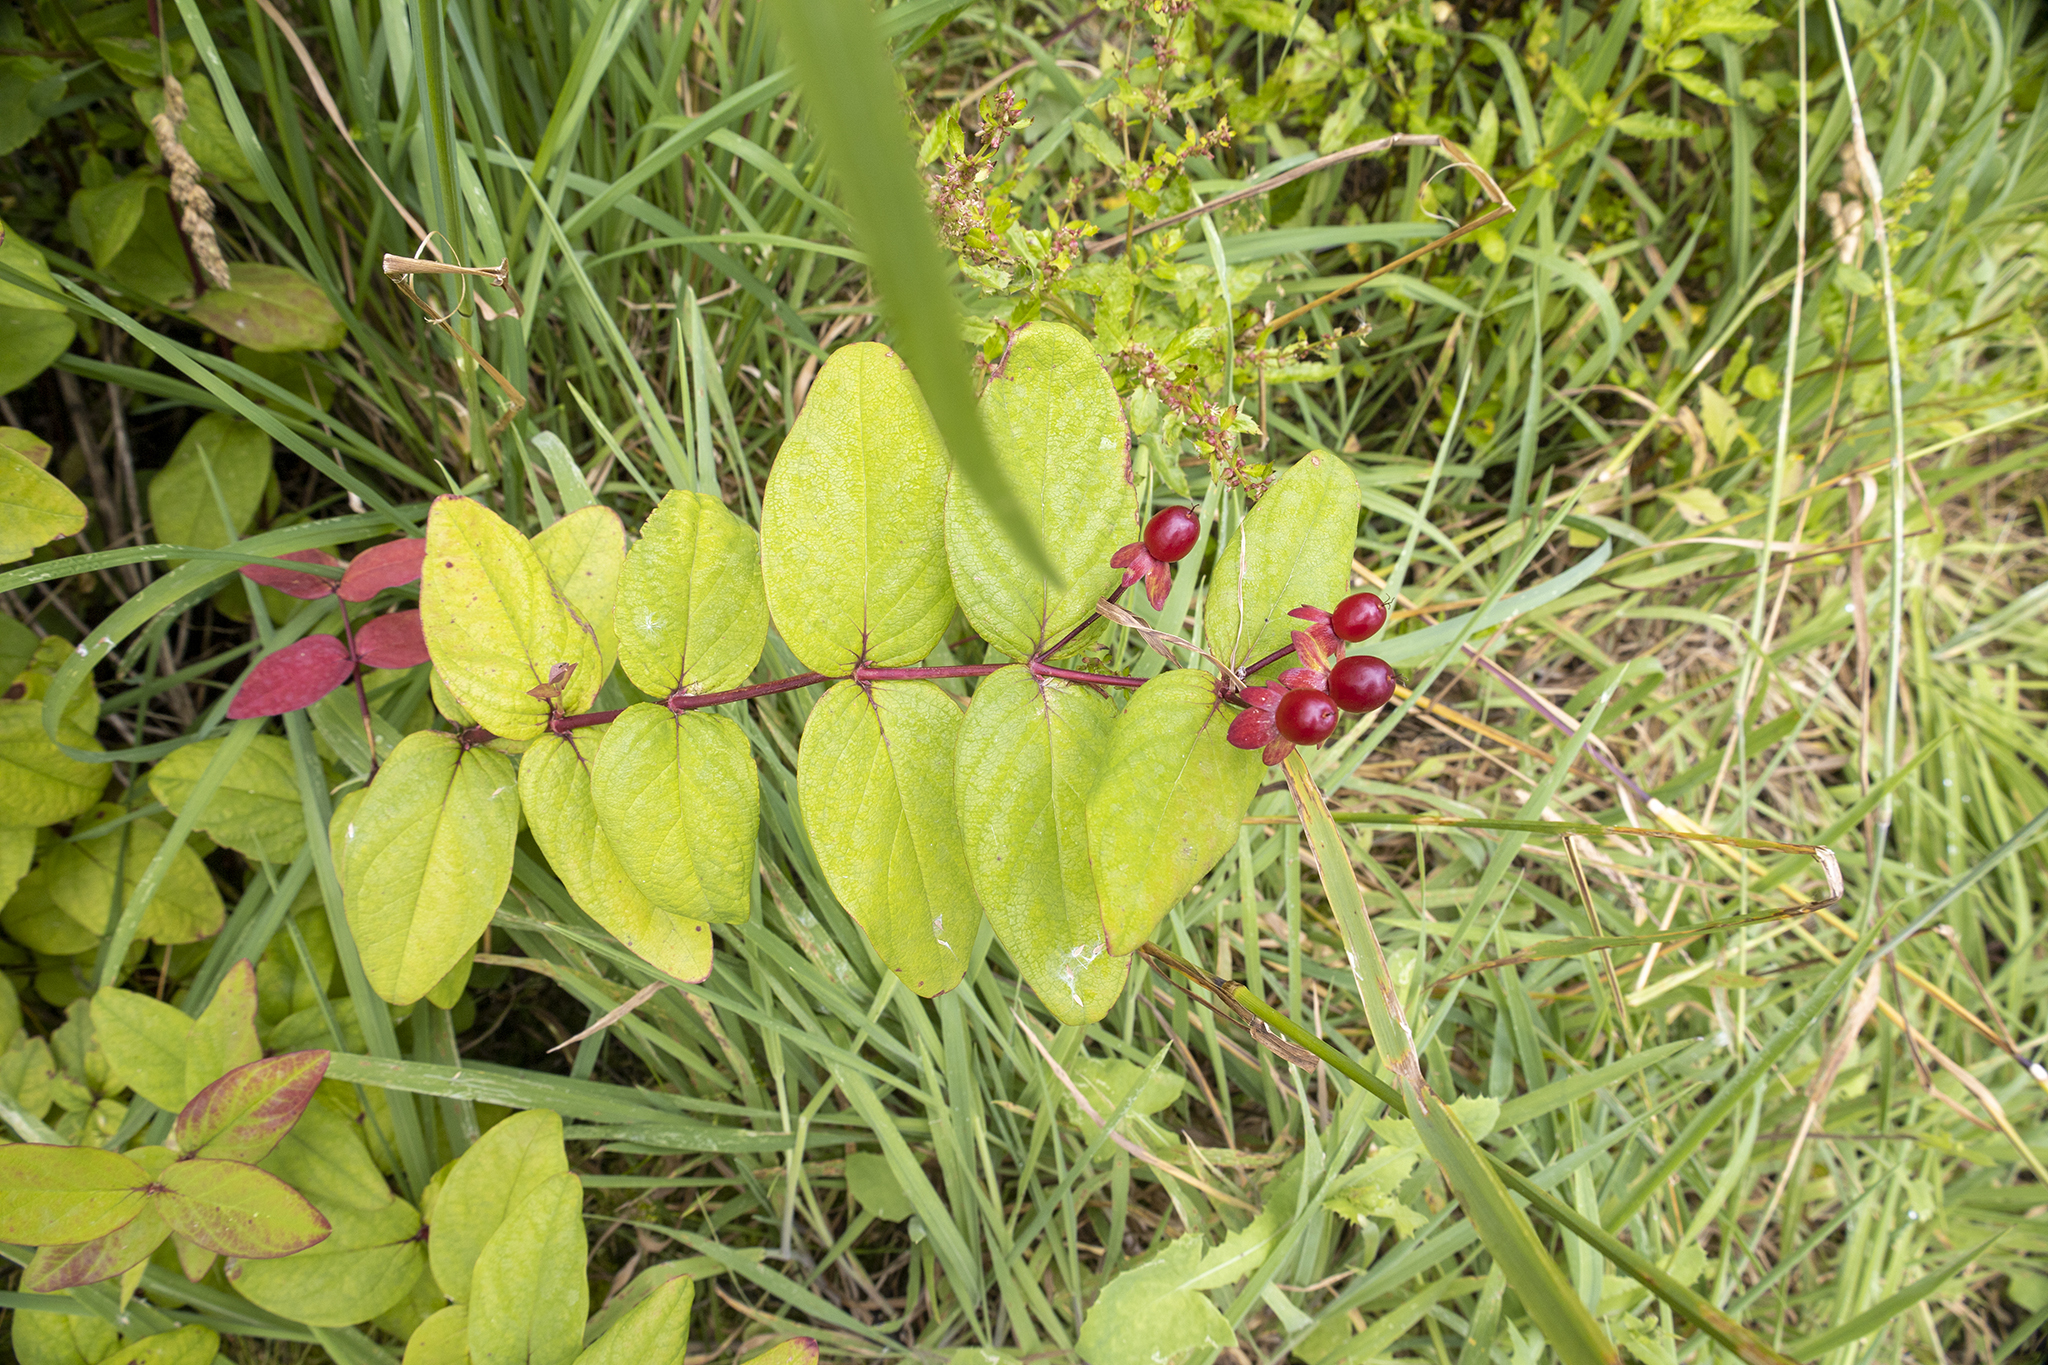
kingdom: Plantae
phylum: Tracheophyta
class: Magnoliopsida
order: Malpighiales
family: Hypericaceae
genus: Hypericum
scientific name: Hypericum androsaemum
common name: Sweet-amber
